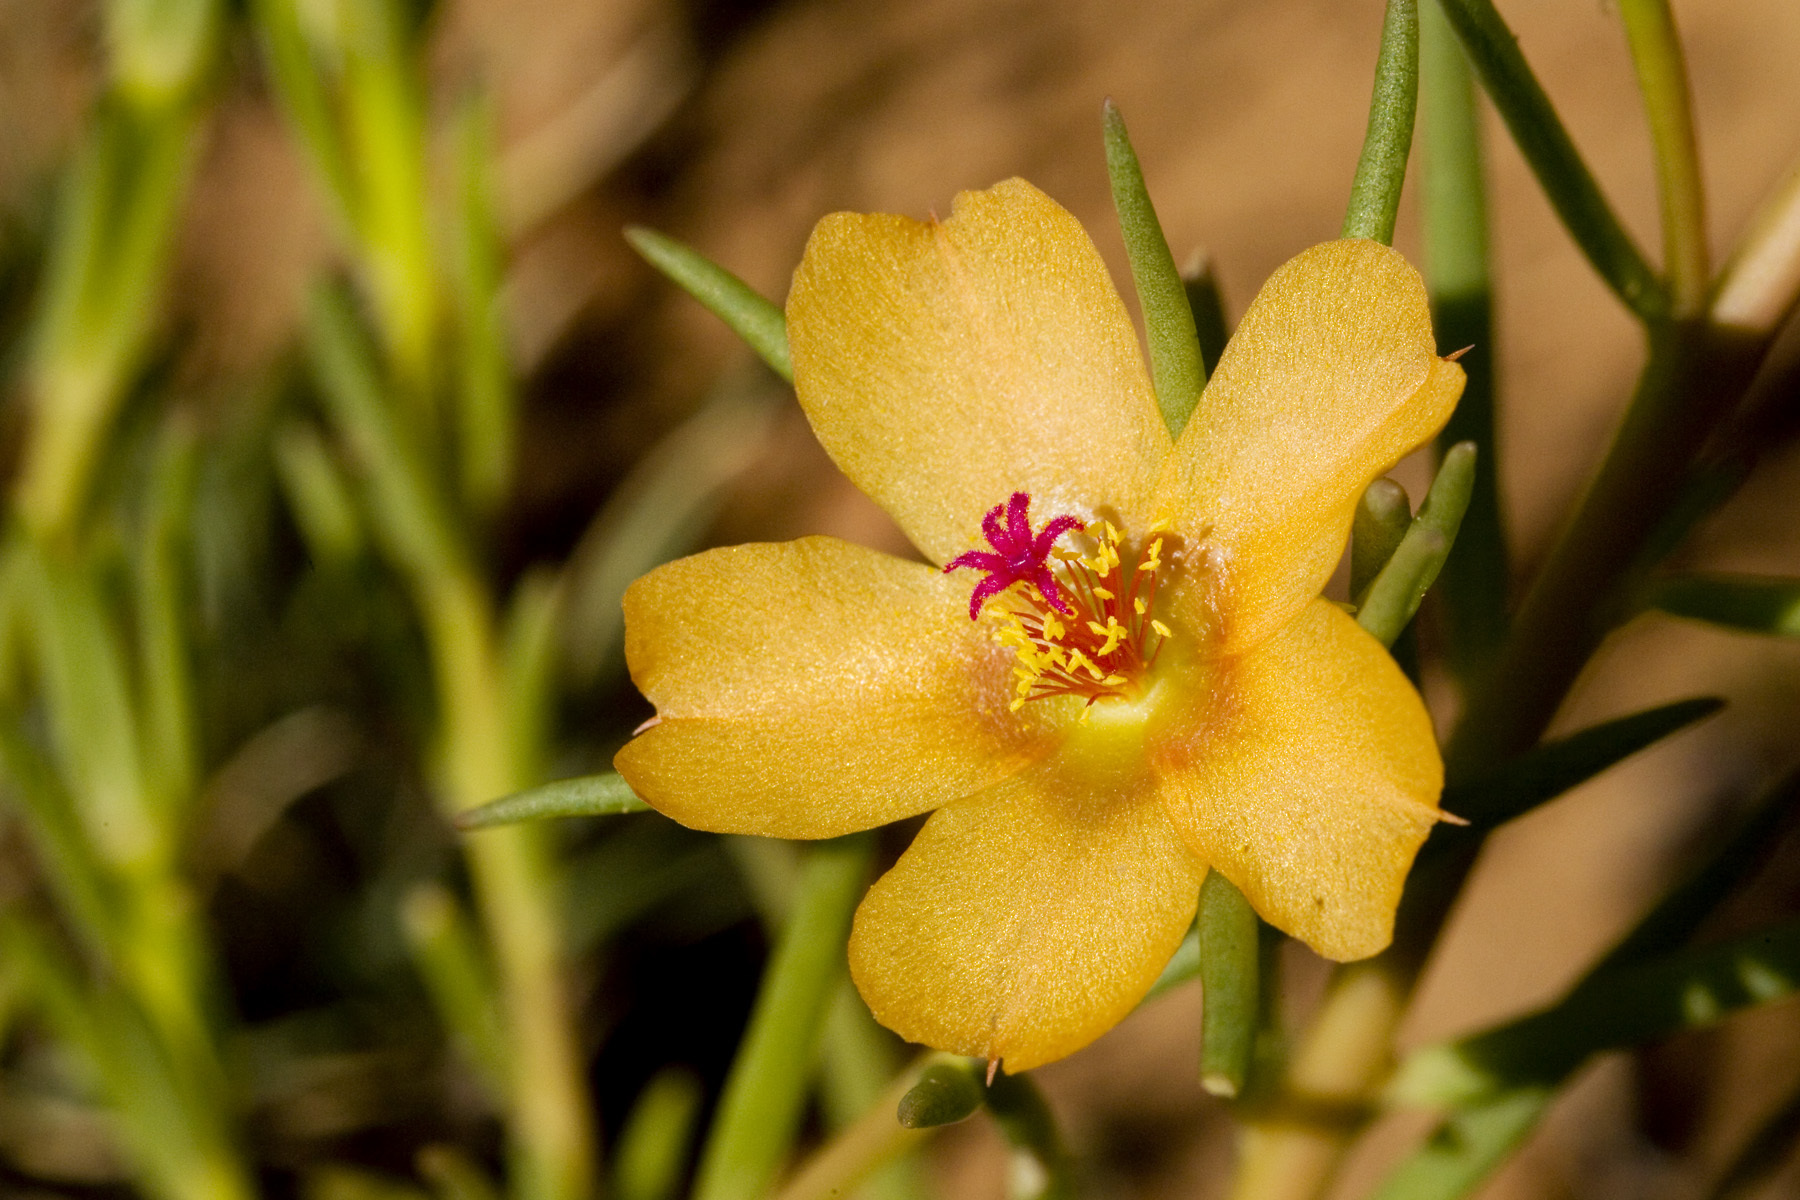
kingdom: Plantae
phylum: Tracheophyta
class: Magnoliopsida
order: Caryophyllales
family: Portulacaceae
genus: Portulaca
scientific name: Portulaca suffrutescens
